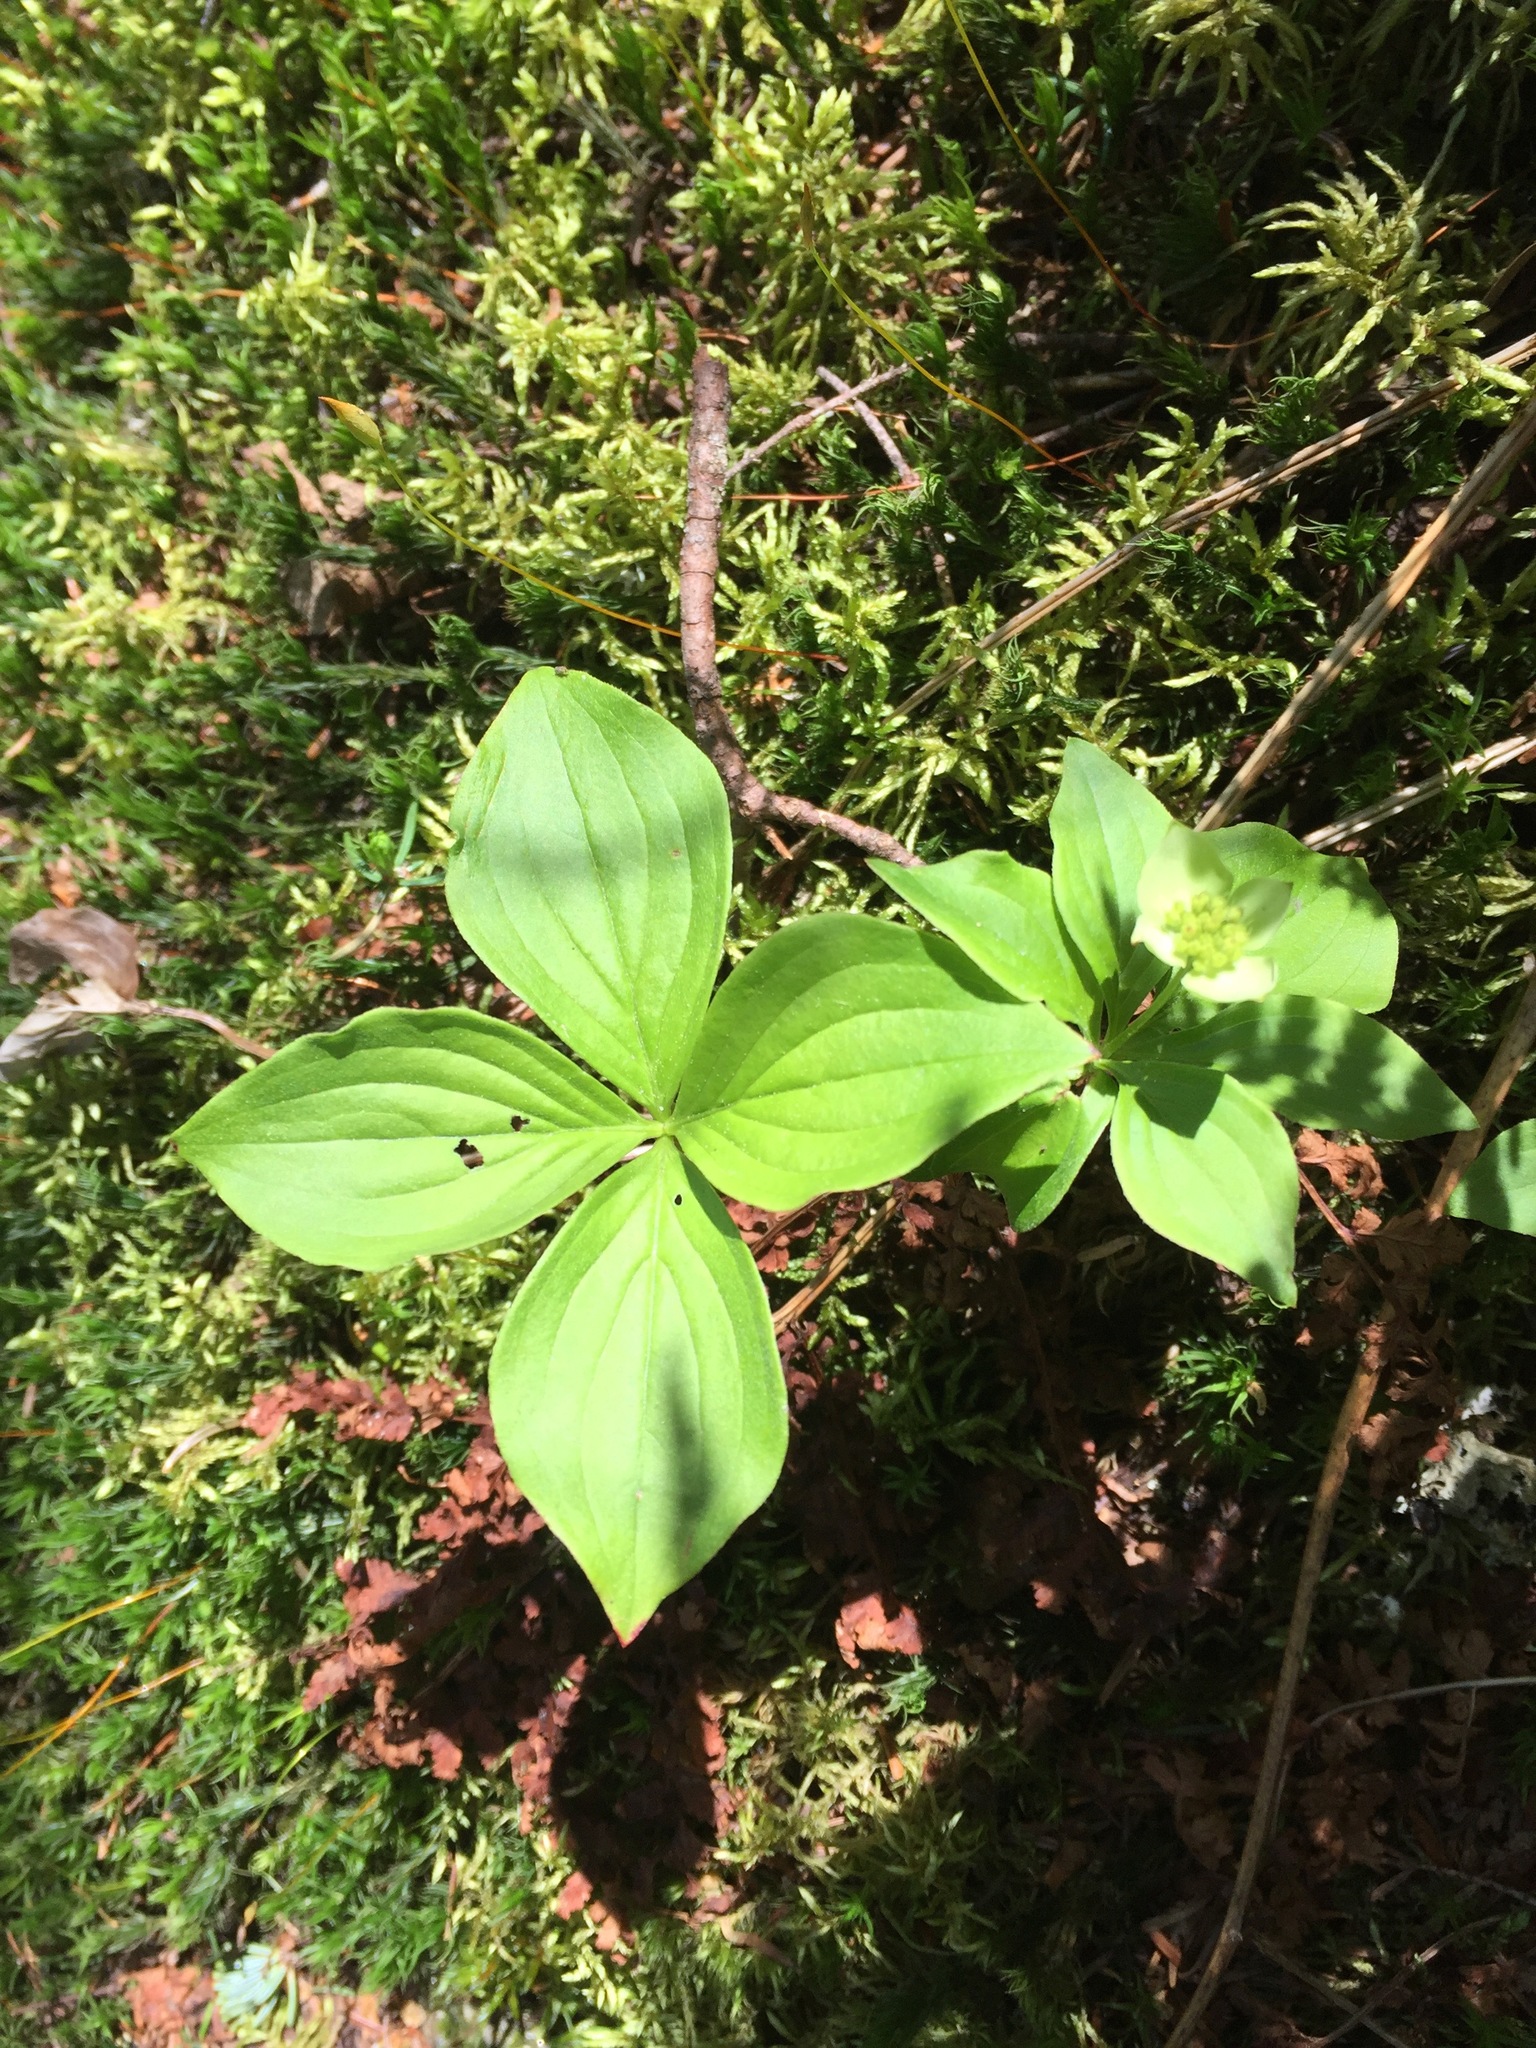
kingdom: Plantae
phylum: Tracheophyta
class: Magnoliopsida
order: Cornales
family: Cornaceae
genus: Cornus
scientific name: Cornus canadensis
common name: Creeping dogwood
